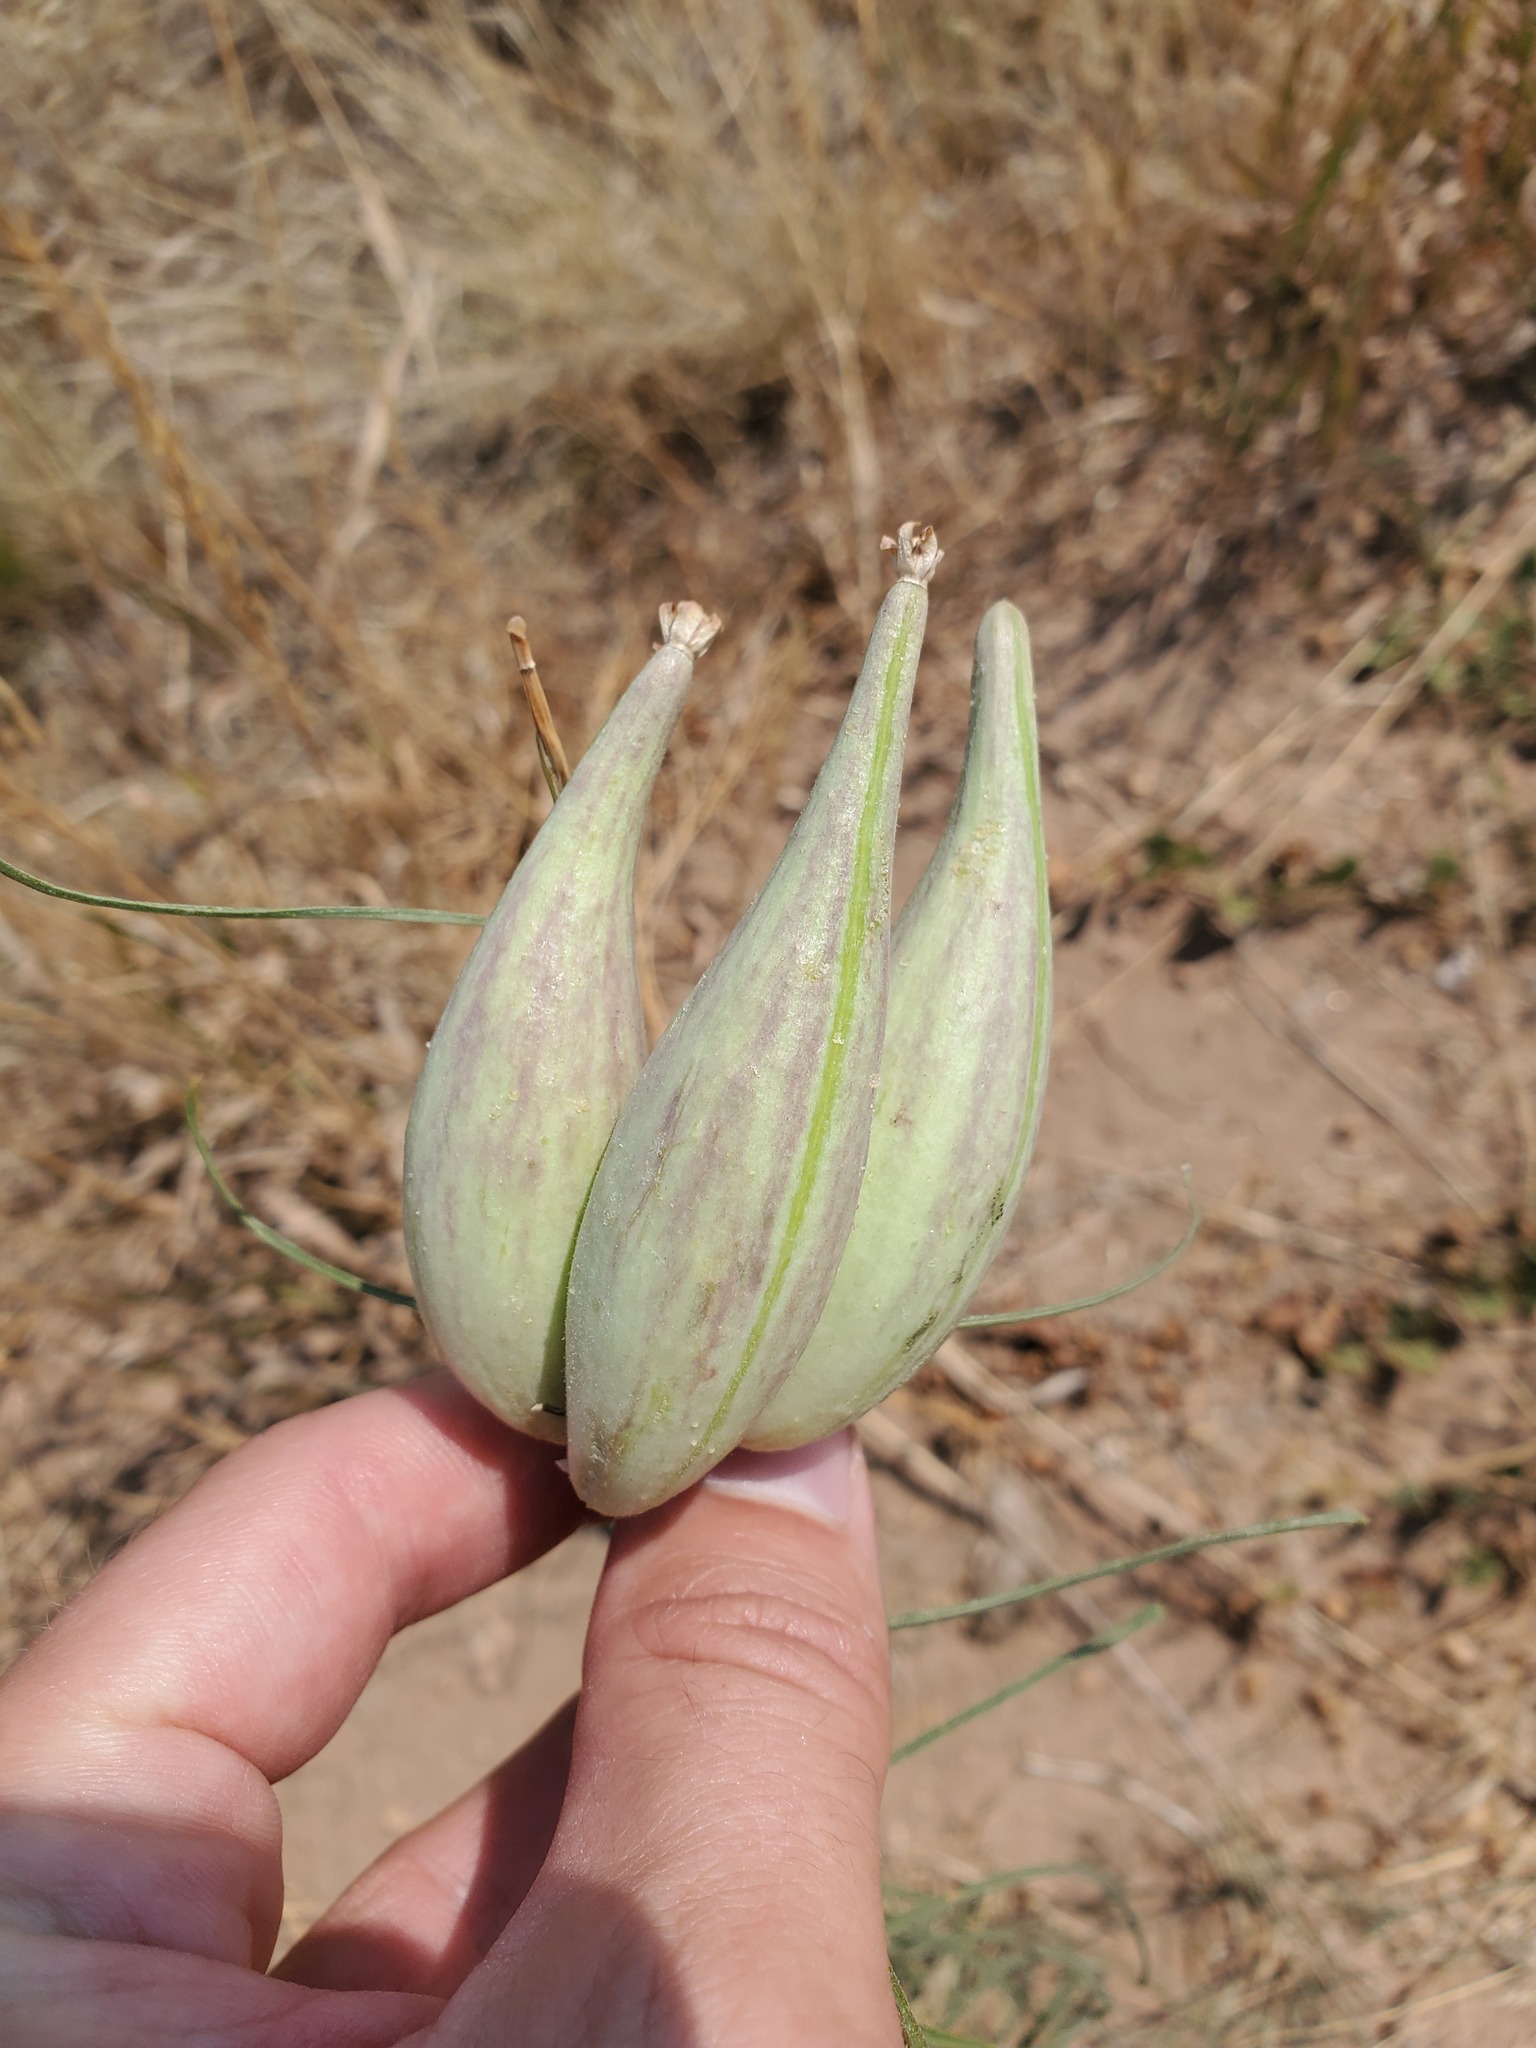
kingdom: Plantae
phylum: Tracheophyta
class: Magnoliopsida
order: Gentianales
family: Apocynaceae
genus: Asclepias
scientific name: Asclepias engelmanniana
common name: Engelmann's milkweed
